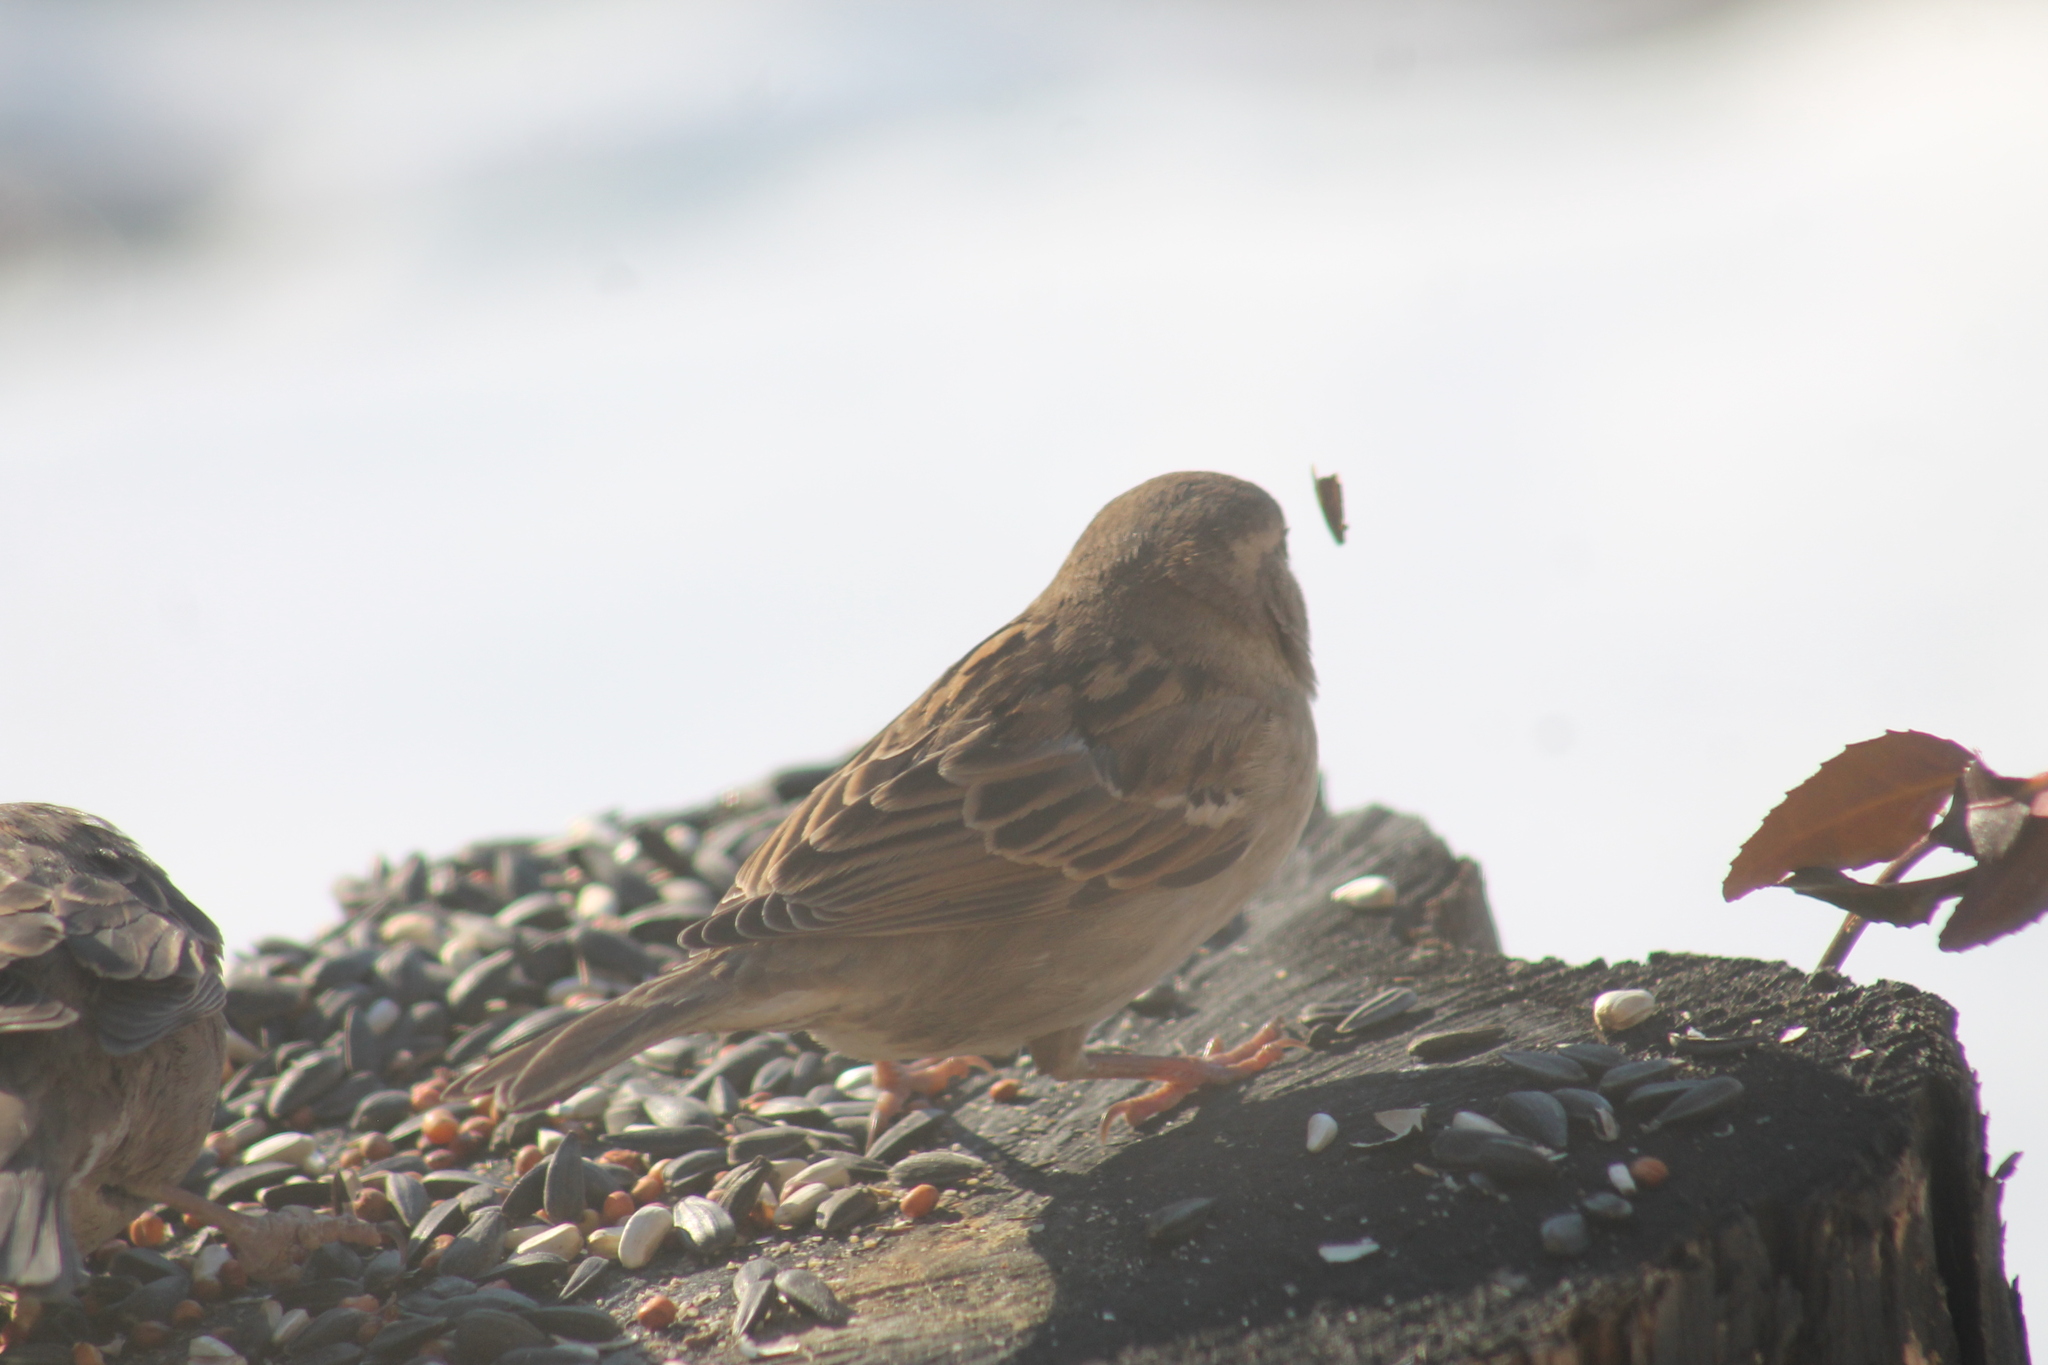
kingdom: Animalia
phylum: Chordata
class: Aves
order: Passeriformes
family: Passeridae
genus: Passer
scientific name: Passer domesticus
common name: House sparrow
